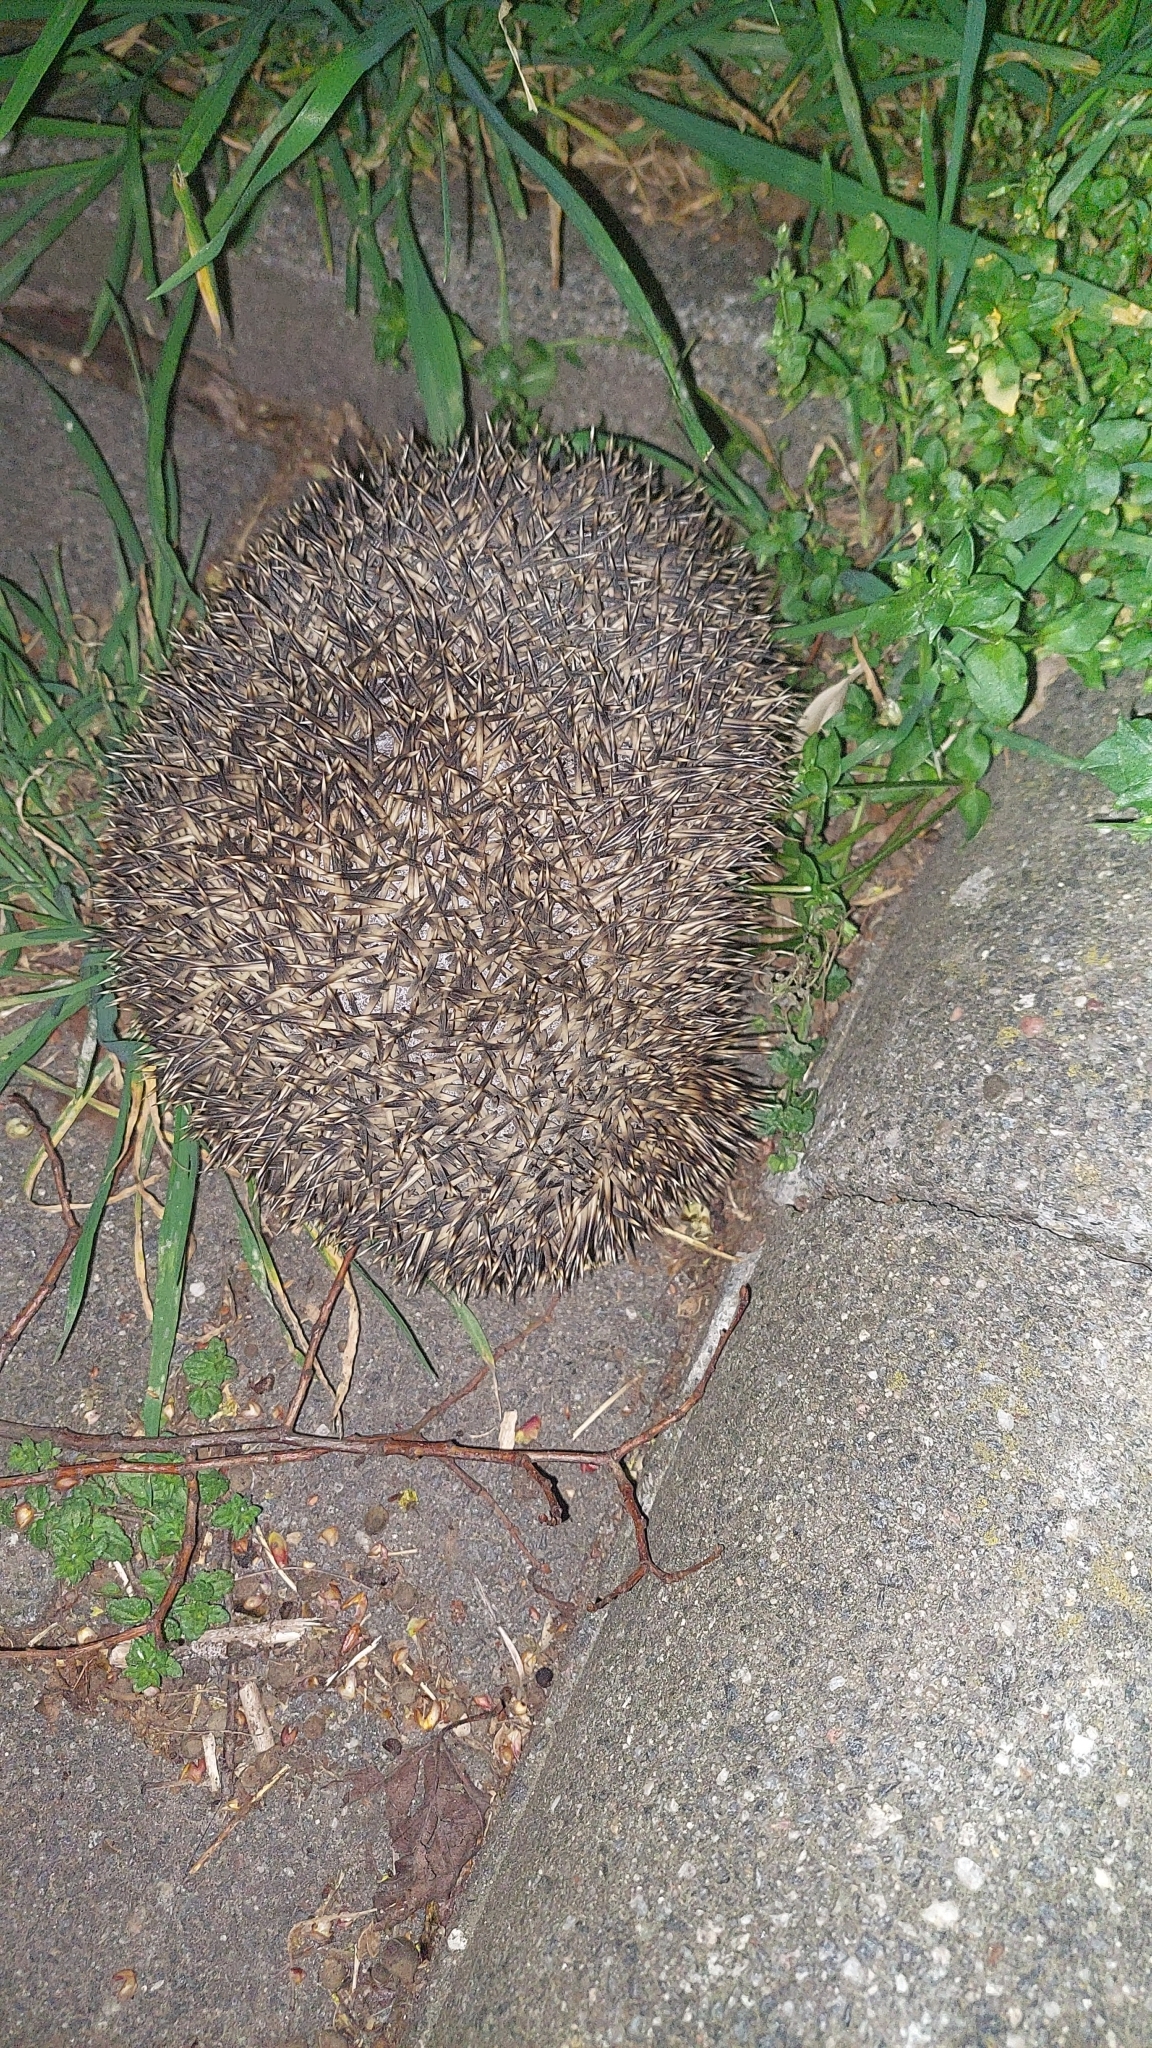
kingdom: Animalia
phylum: Chordata
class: Mammalia
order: Erinaceomorpha
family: Erinaceidae
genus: Erinaceus
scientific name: Erinaceus europaeus
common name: West european hedgehog
